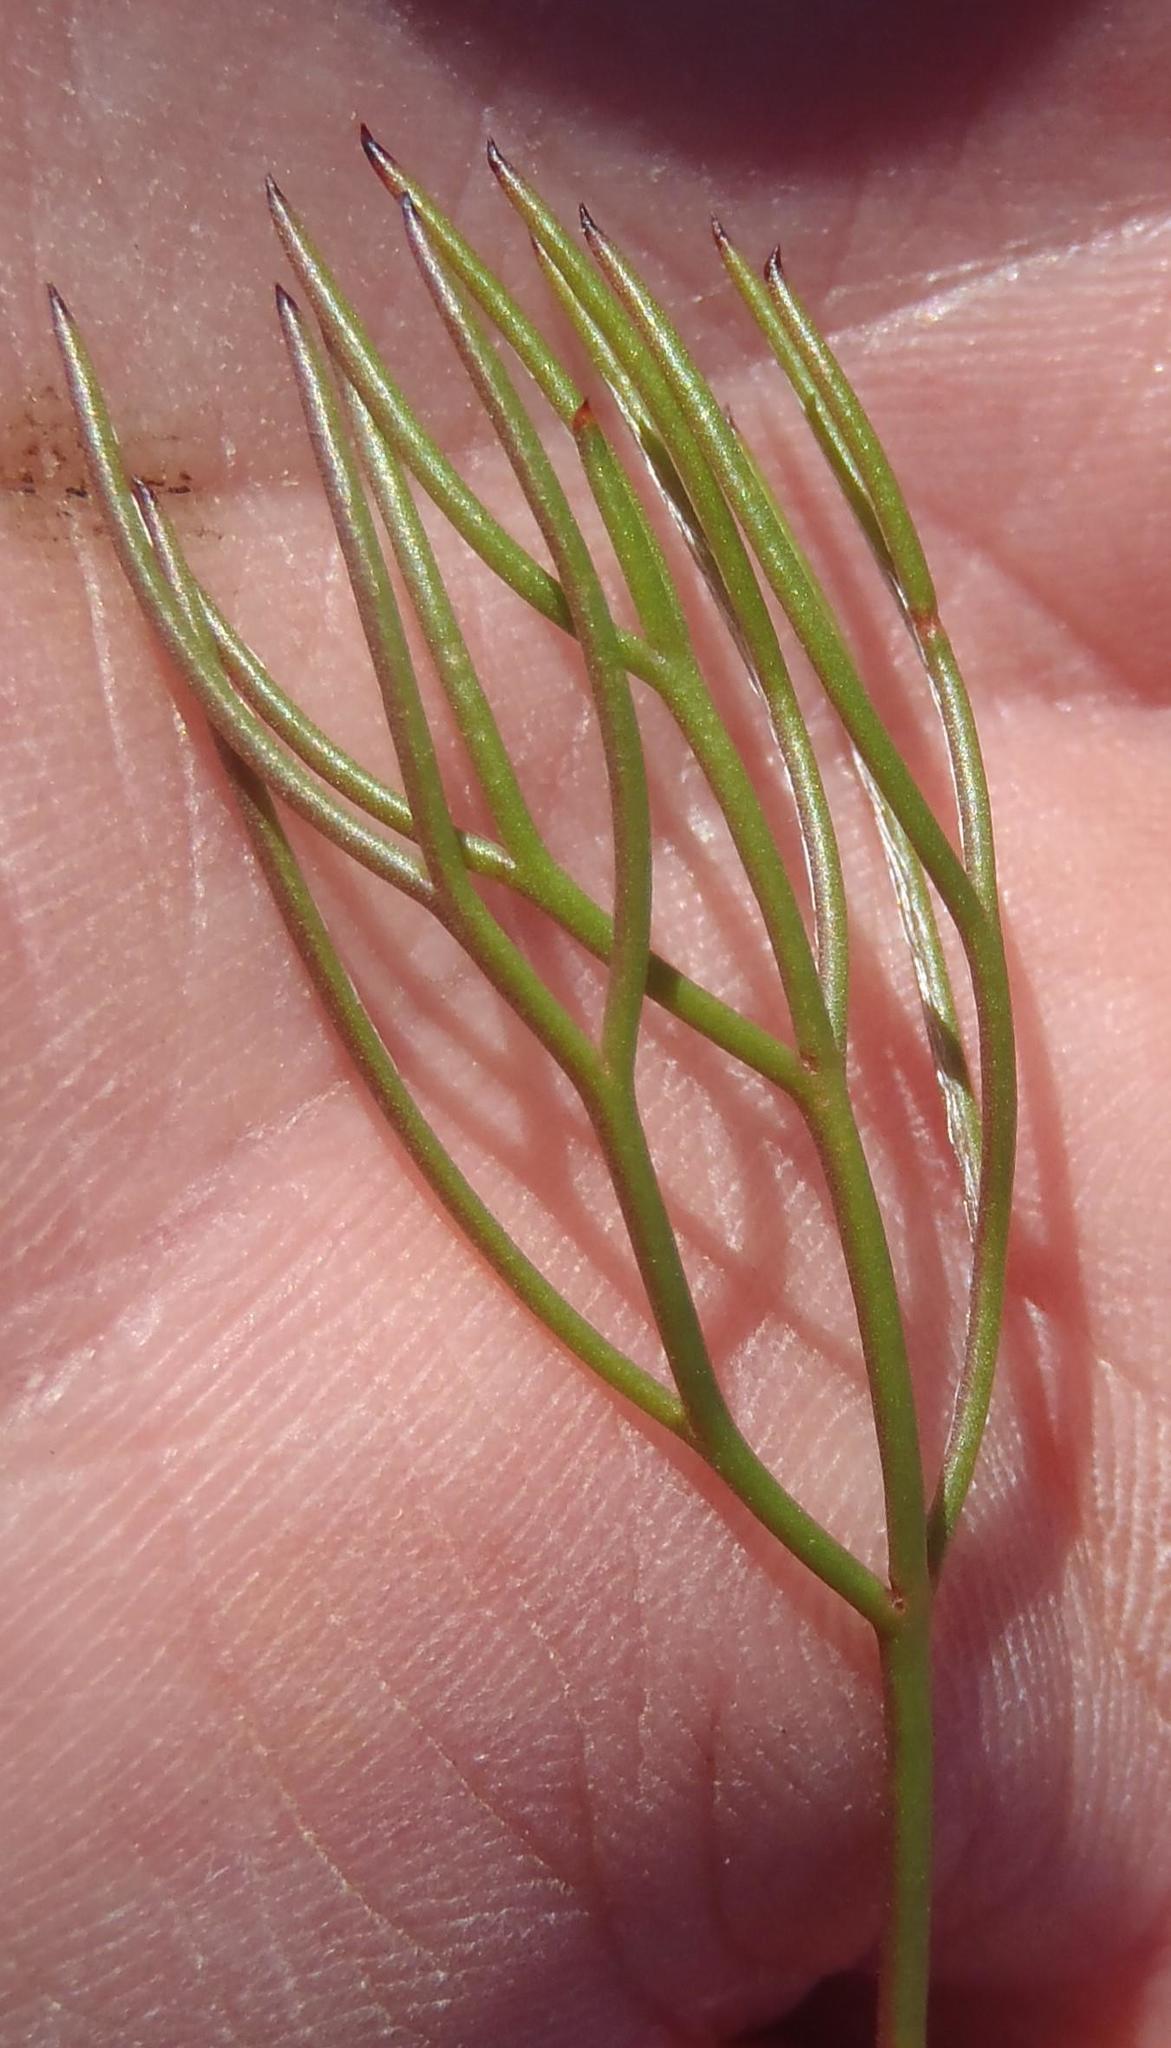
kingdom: Plantae
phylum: Tracheophyta
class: Magnoliopsida
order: Proteales
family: Proteaceae
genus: Serruria
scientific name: Serruria fasciflora
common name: Common pin spiderhead
